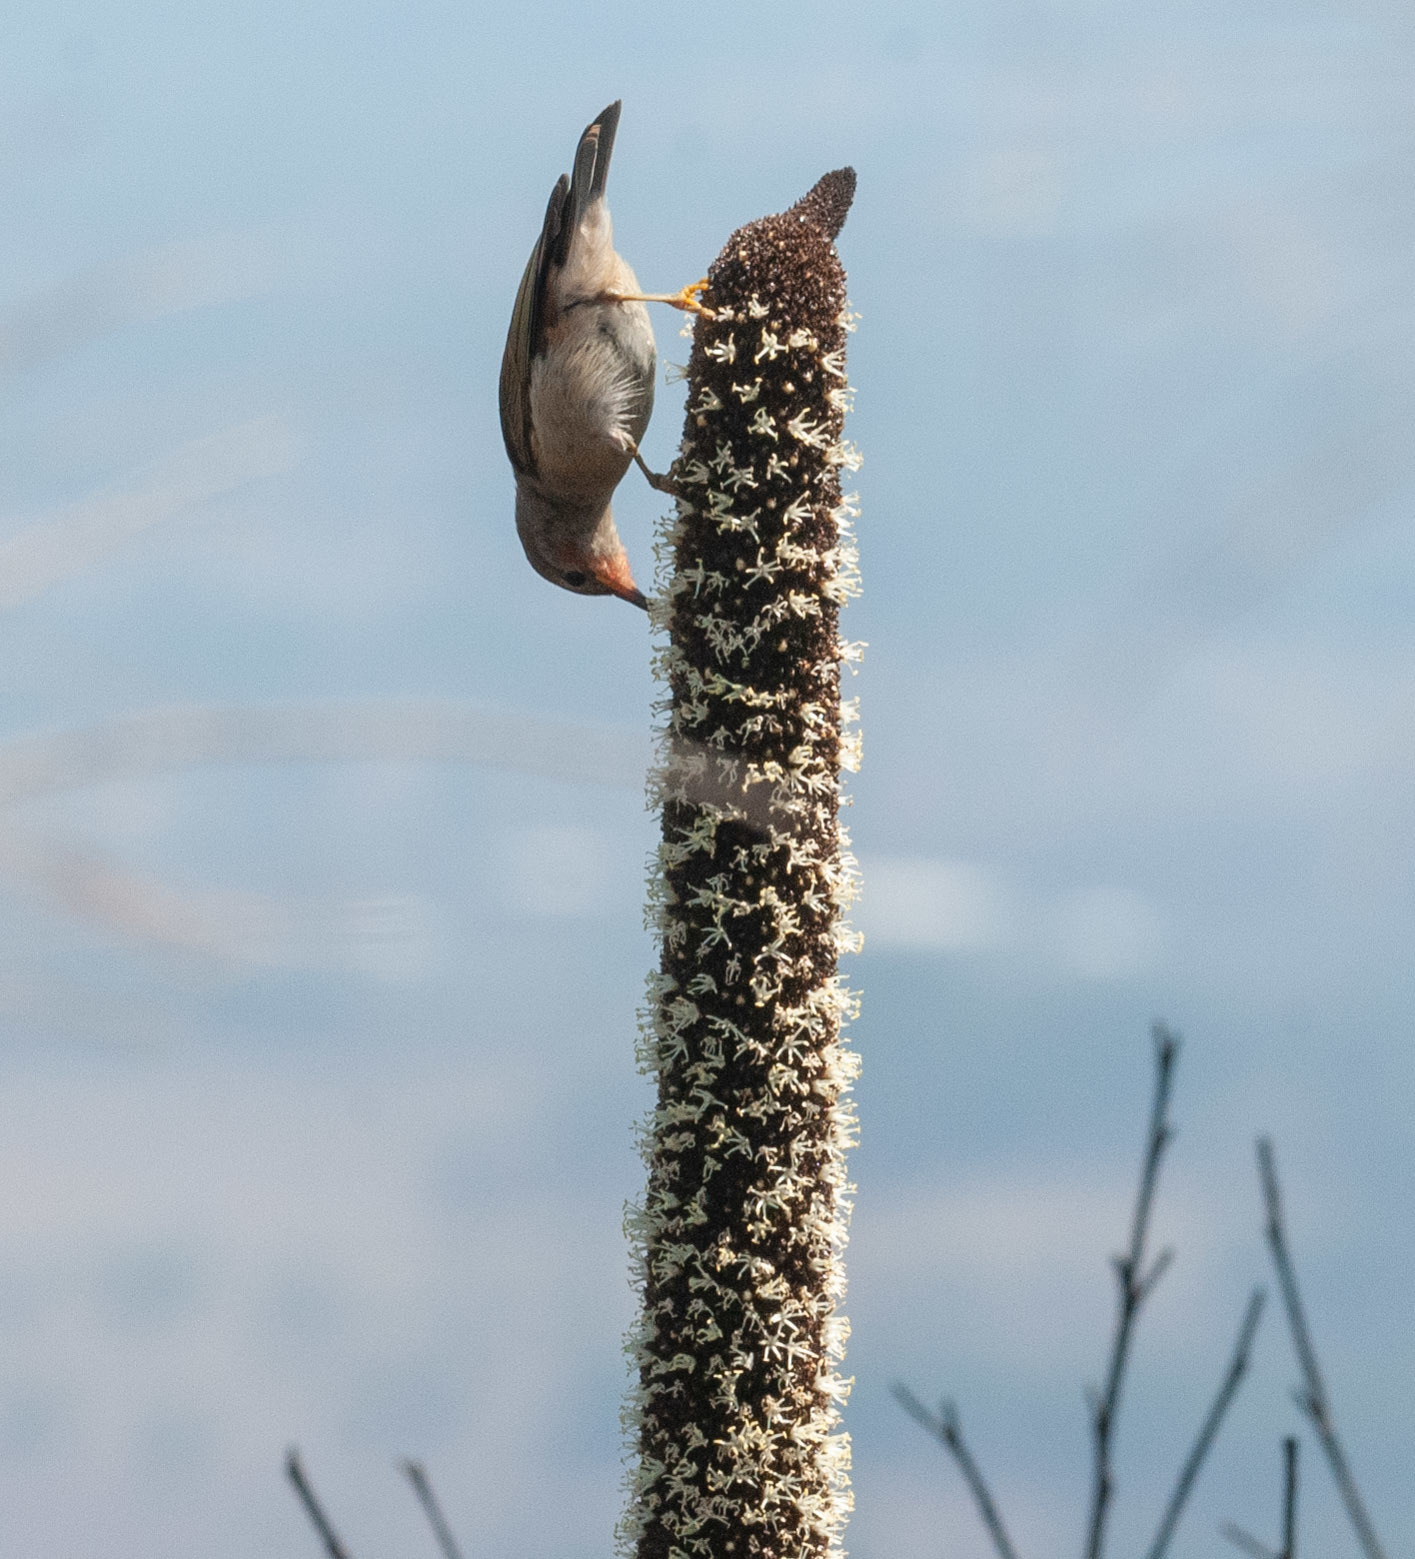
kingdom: Animalia
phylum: Chordata
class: Aves
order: Passeriformes
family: Meliphagidae
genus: Myzomela
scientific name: Myzomela sanguinolenta
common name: Scarlet myzomela
